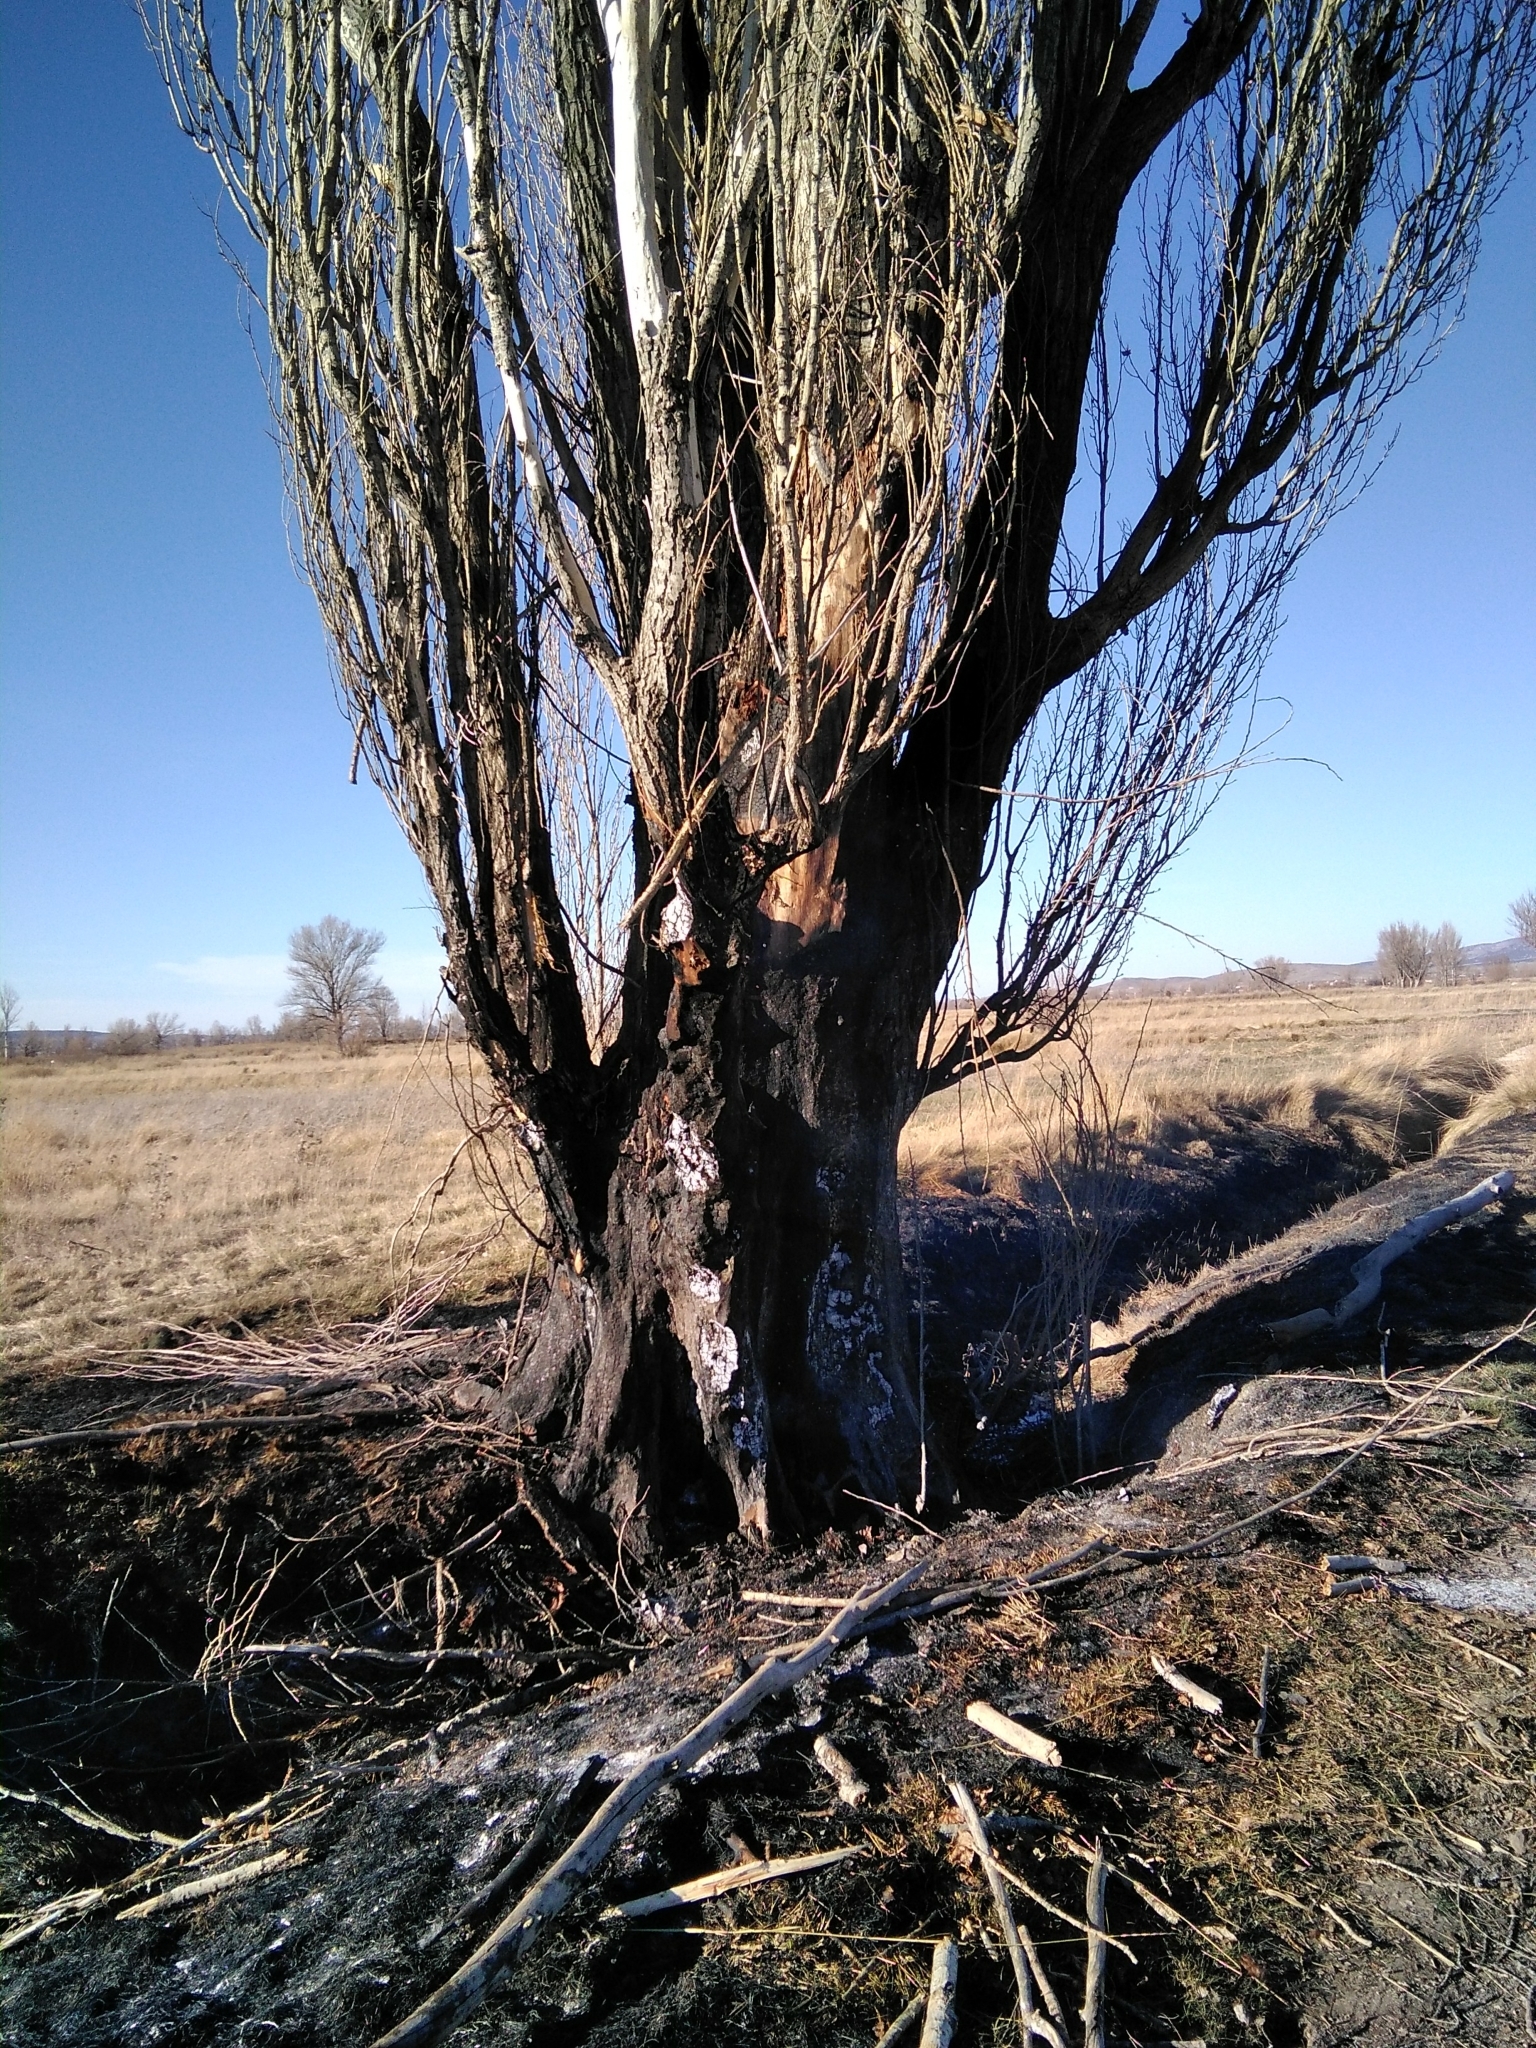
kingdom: Plantae
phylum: Tracheophyta
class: Magnoliopsida
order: Malpighiales
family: Salicaceae
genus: Populus
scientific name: Populus nigra
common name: Black poplar
